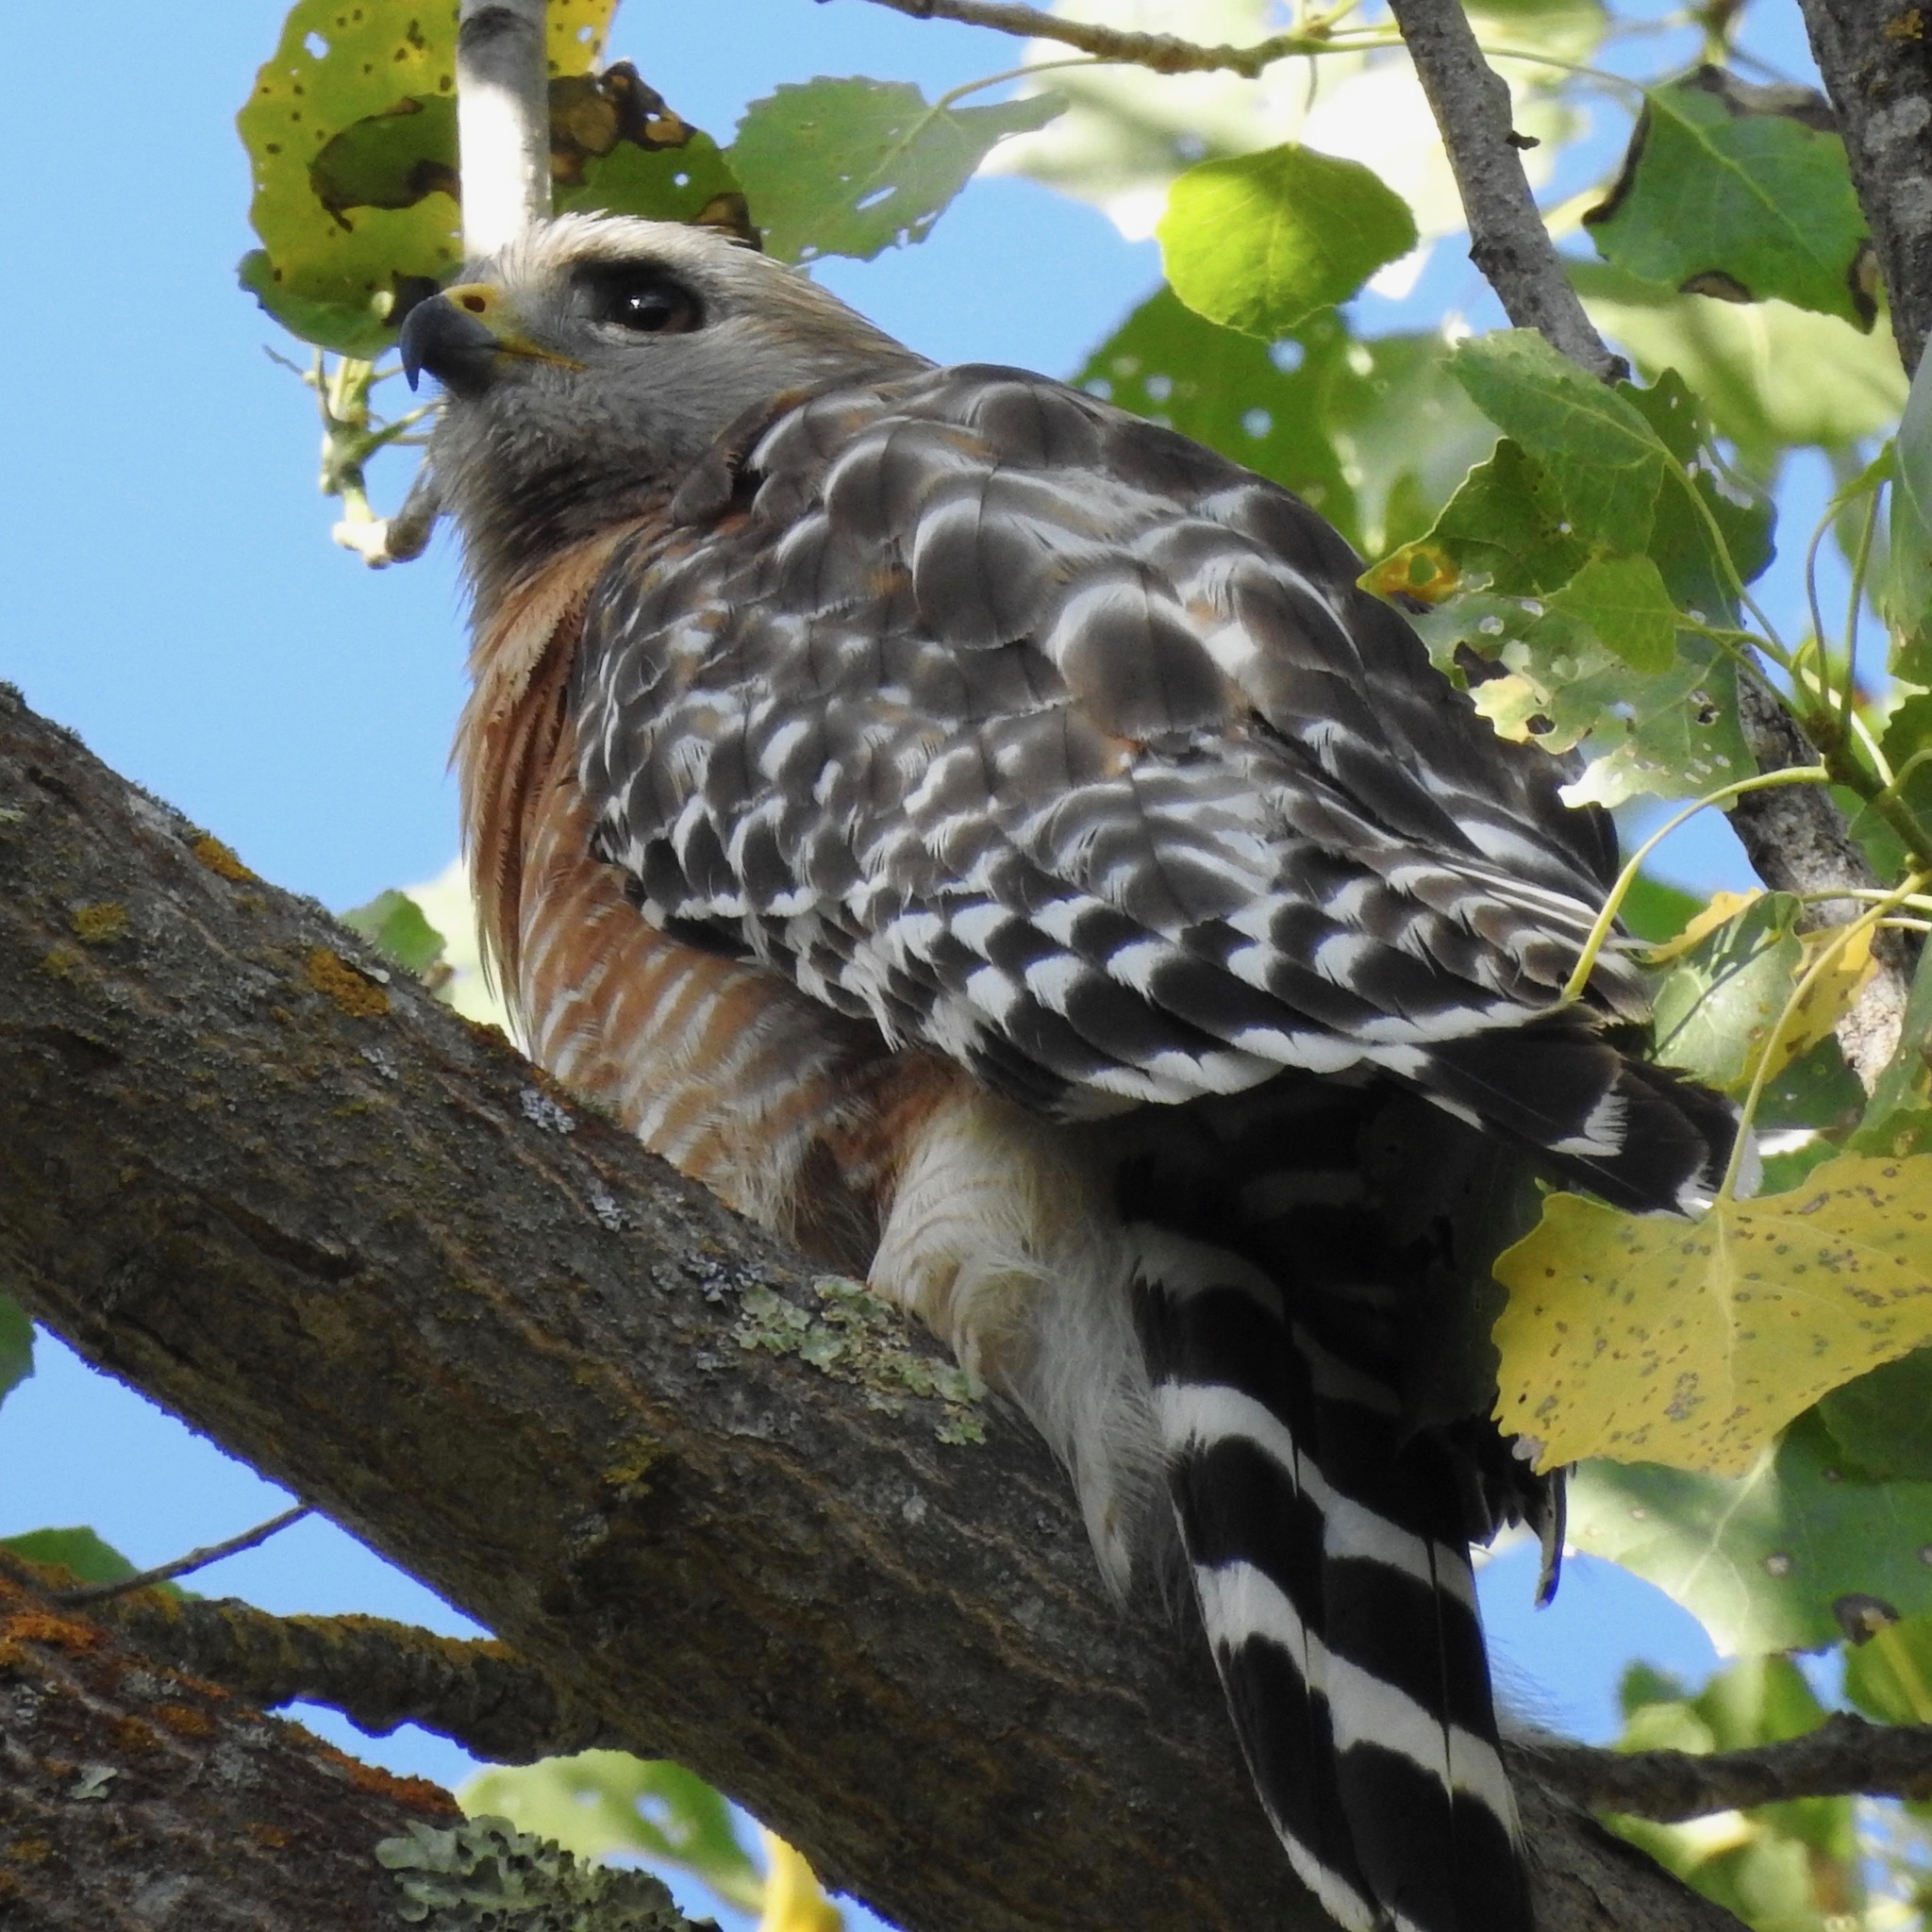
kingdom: Animalia
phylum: Chordata
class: Aves
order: Accipitriformes
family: Accipitridae
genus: Buteo
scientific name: Buteo lineatus
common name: Red-shouldered hawk
